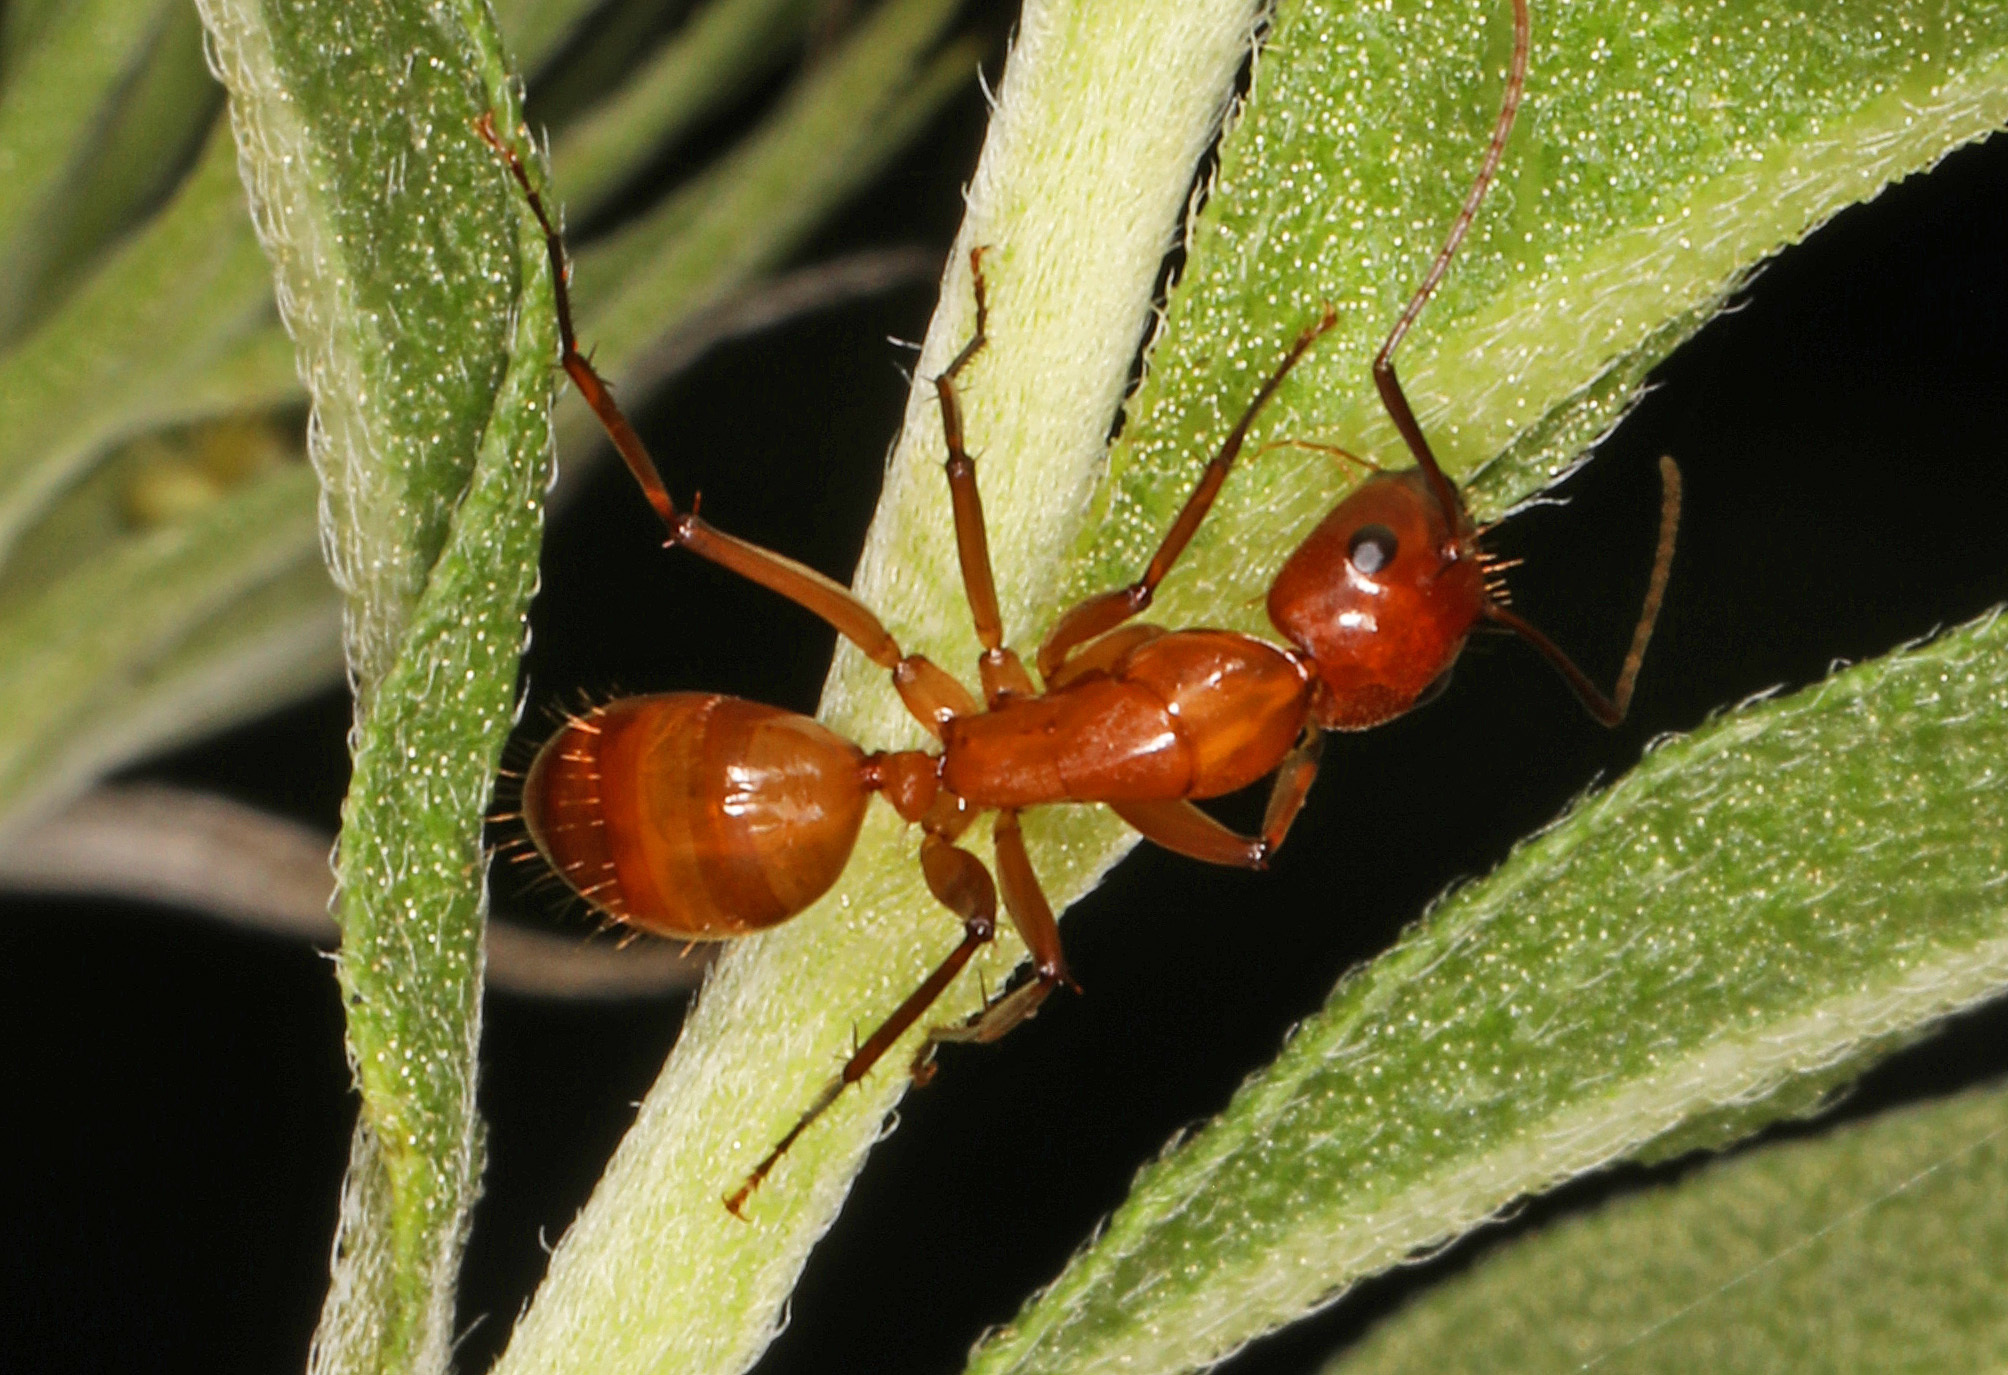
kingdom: Animalia
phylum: Arthropoda
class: Insecta
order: Hymenoptera
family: Formicidae
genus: Camponotus
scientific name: Camponotus castaneus
